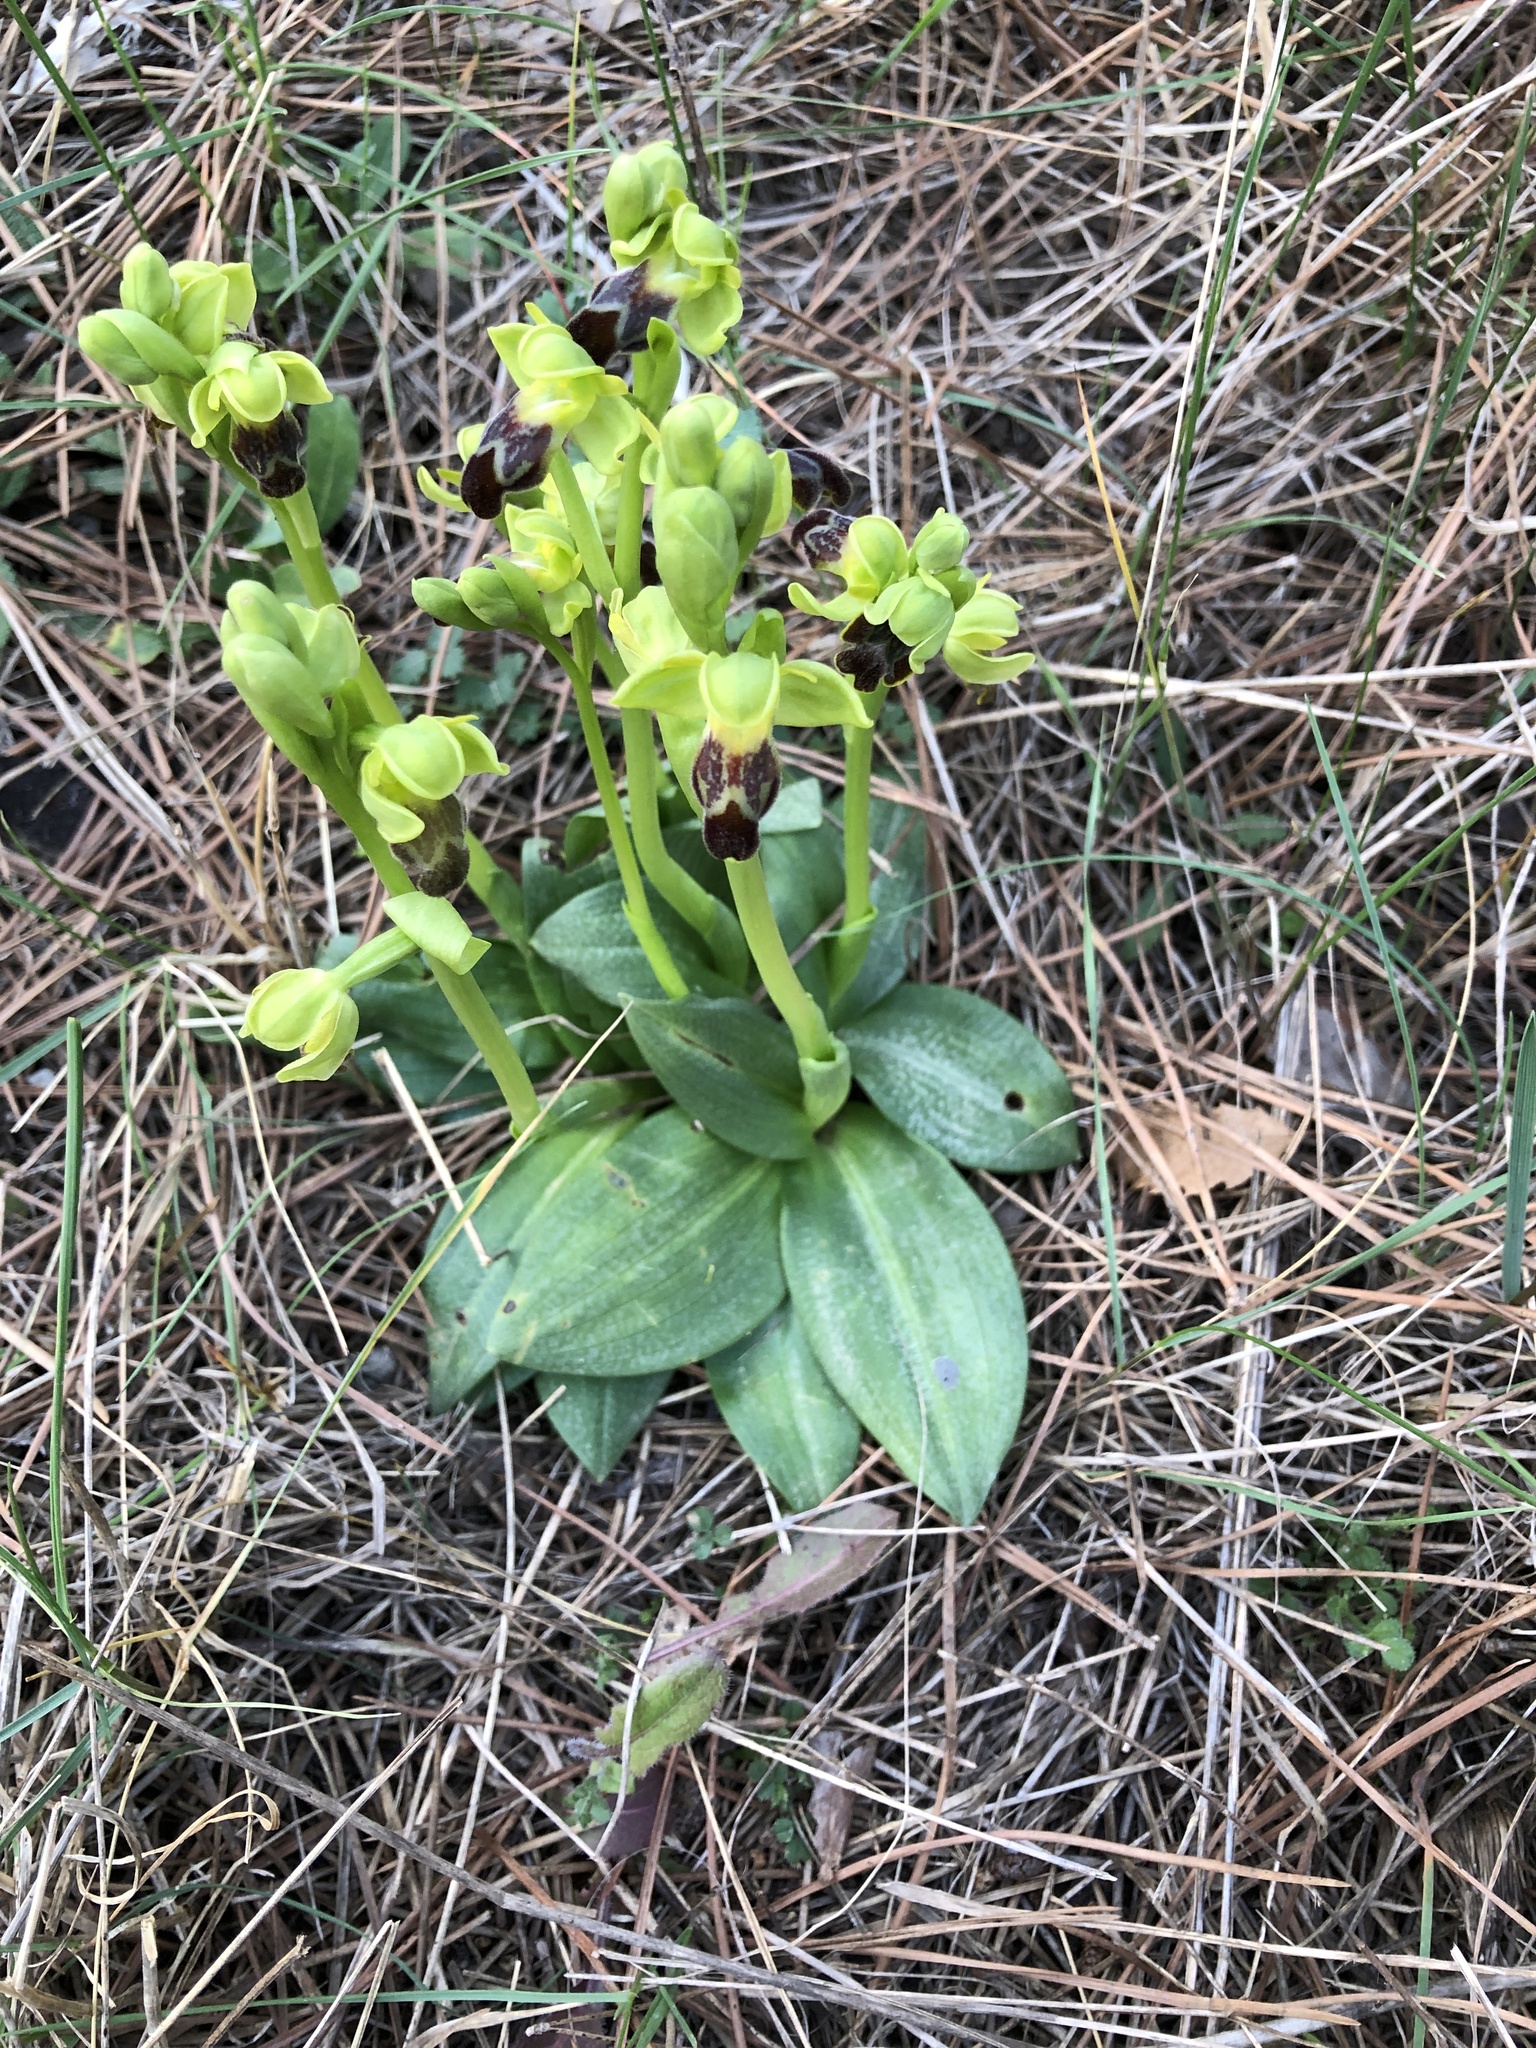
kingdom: Plantae
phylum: Tracheophyta
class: Liliopsida
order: Asparagales
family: Orchidaceae
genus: Ophrys
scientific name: Ophrys fusca
